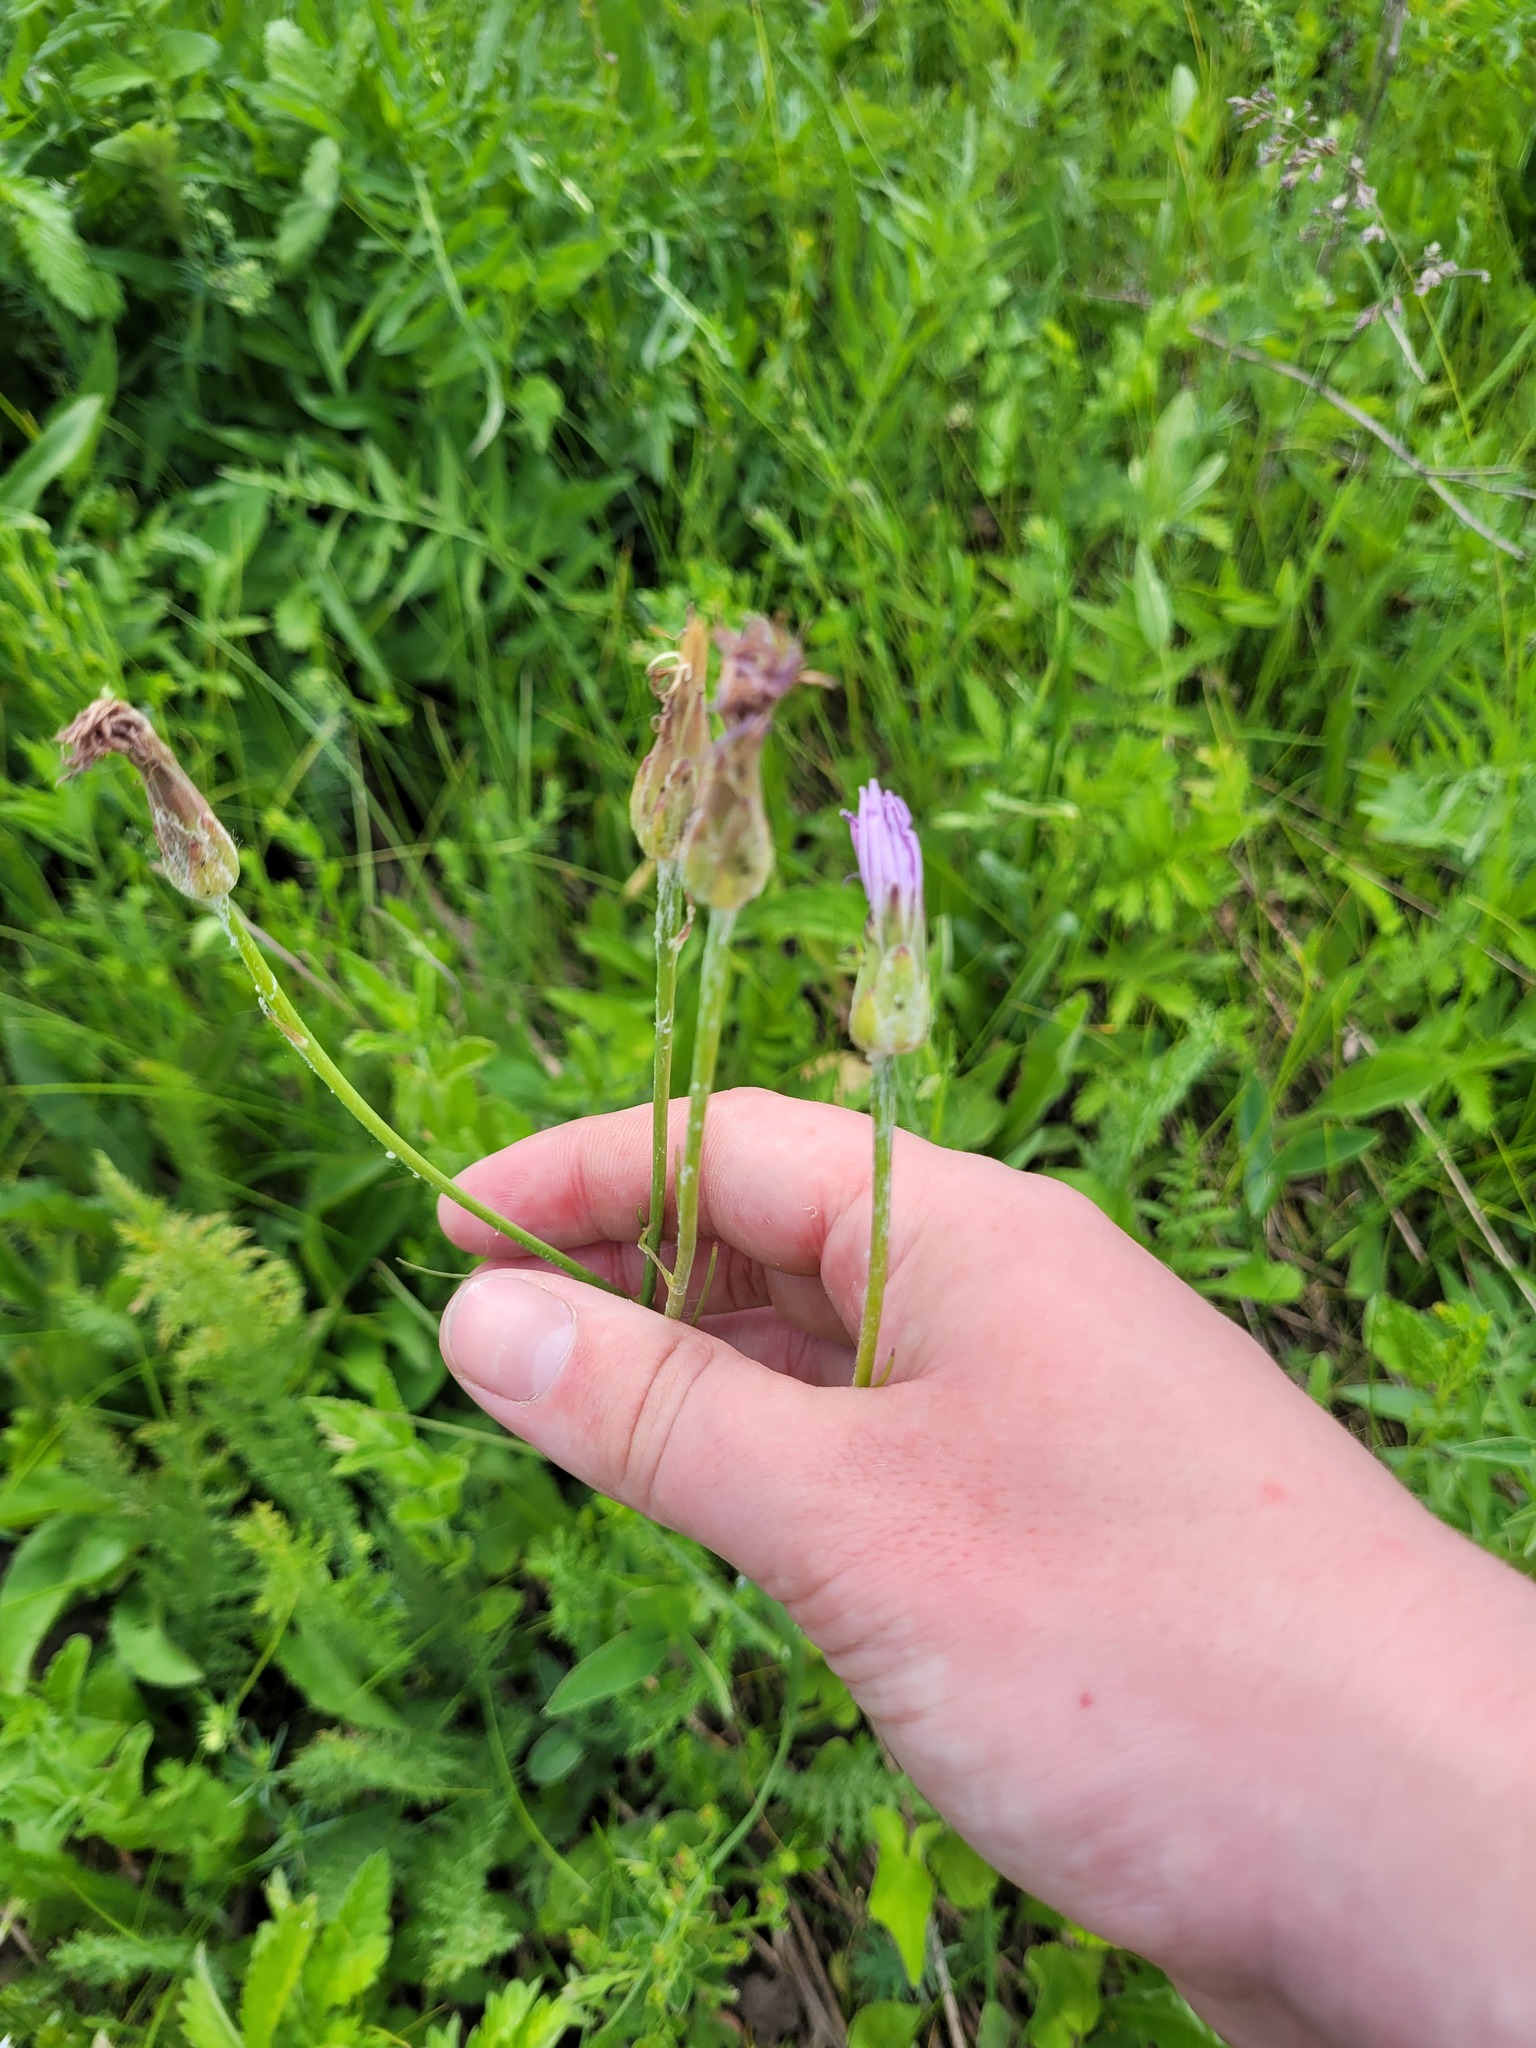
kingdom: Plantae
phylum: Tracheophyta
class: Magnoliopsida
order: Asterales
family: Asteraceae
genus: Scorzonera
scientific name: Scorzonera purpurea
